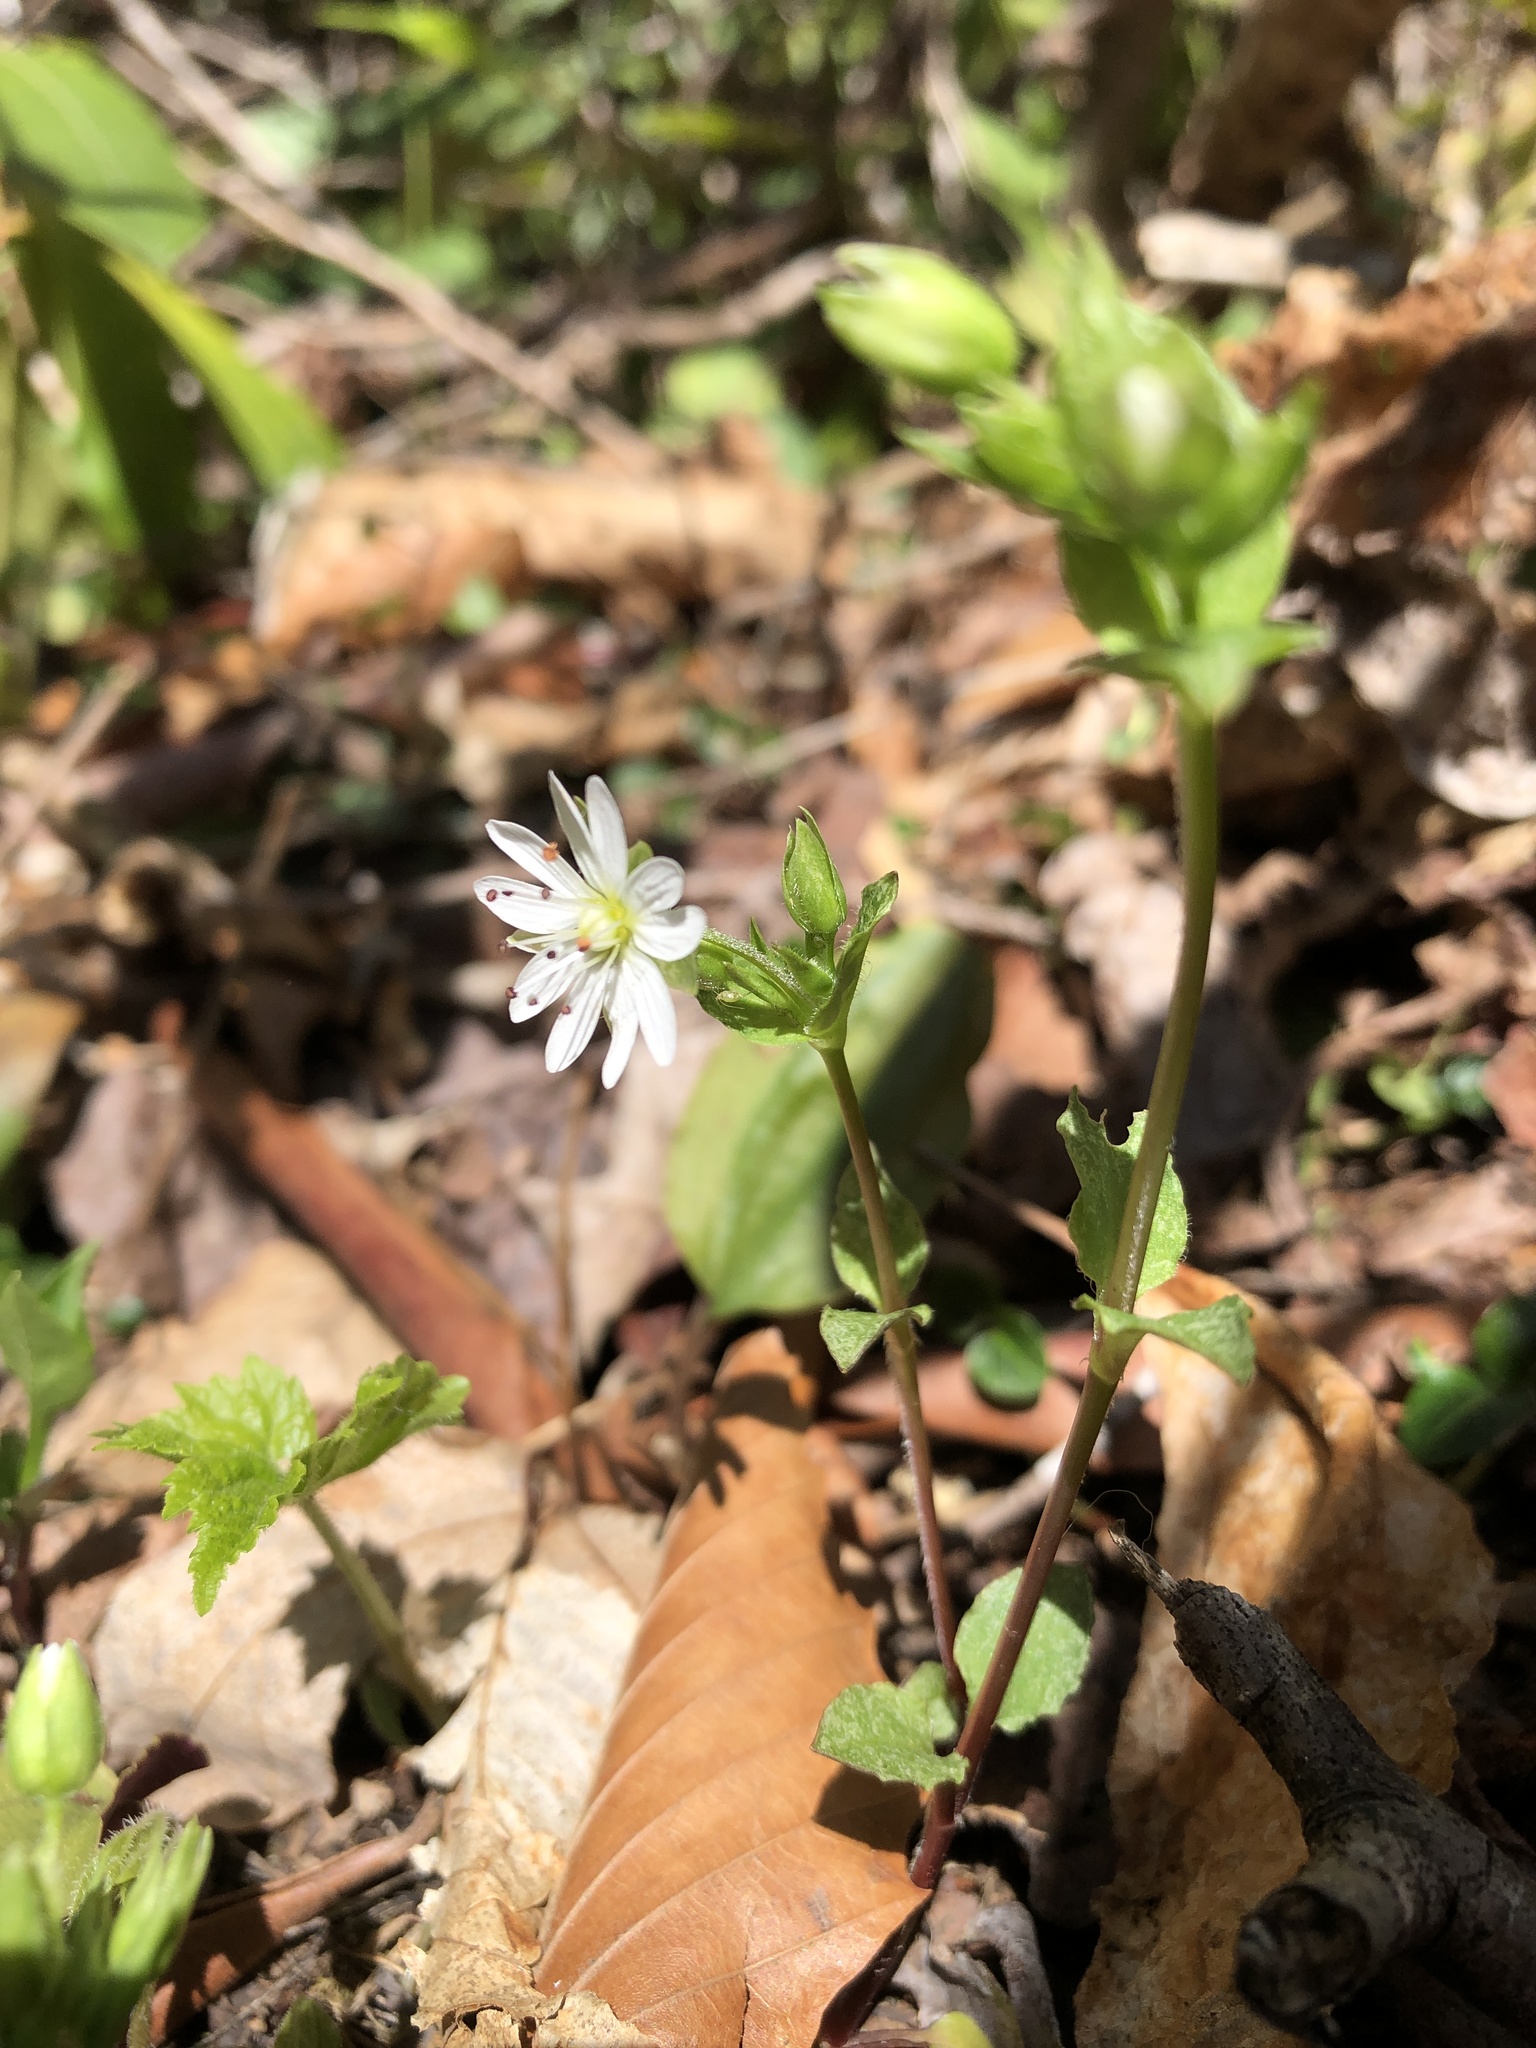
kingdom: Plantae
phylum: Tracheophyta
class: Magnoliopsida
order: Caryophyllales
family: Caryophyllaceae
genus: Stellaria
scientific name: Stellaria pubera
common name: Star chickweed
